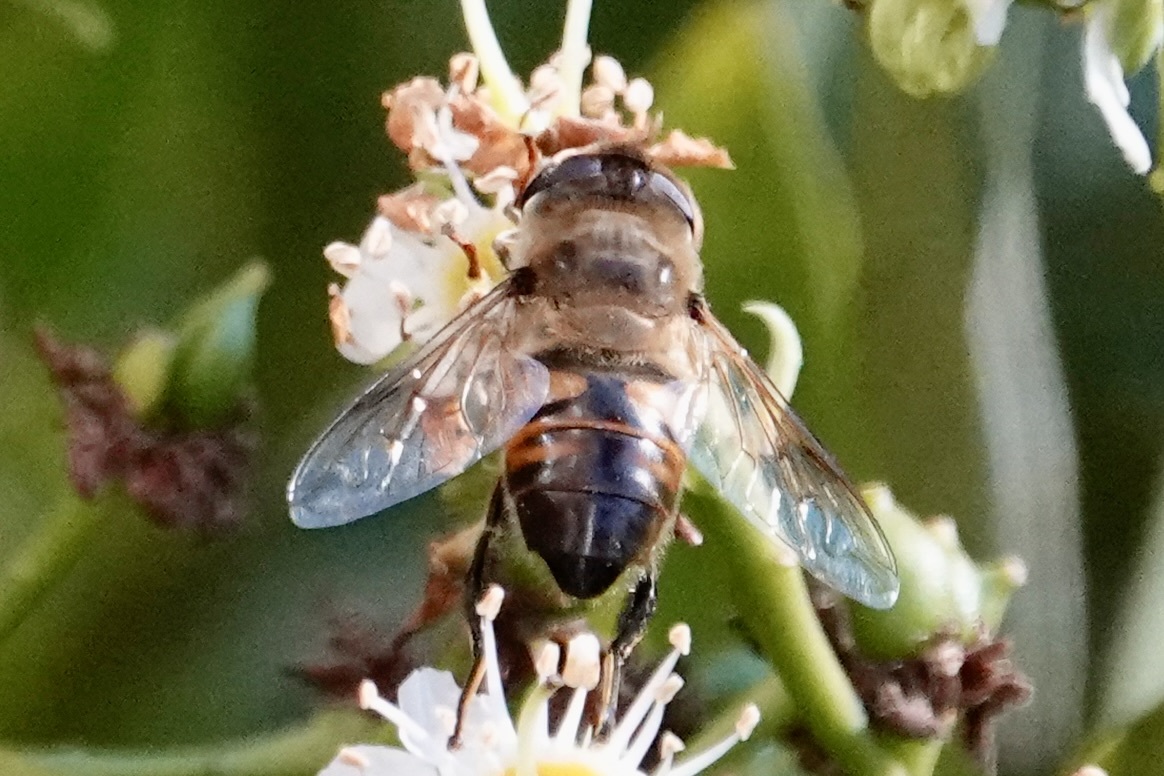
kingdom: Animalia
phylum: Arthropoda
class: Insecta
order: Diptera
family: Syrphidae
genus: Eristalis
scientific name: Eristalis tenax
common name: Drone fly
